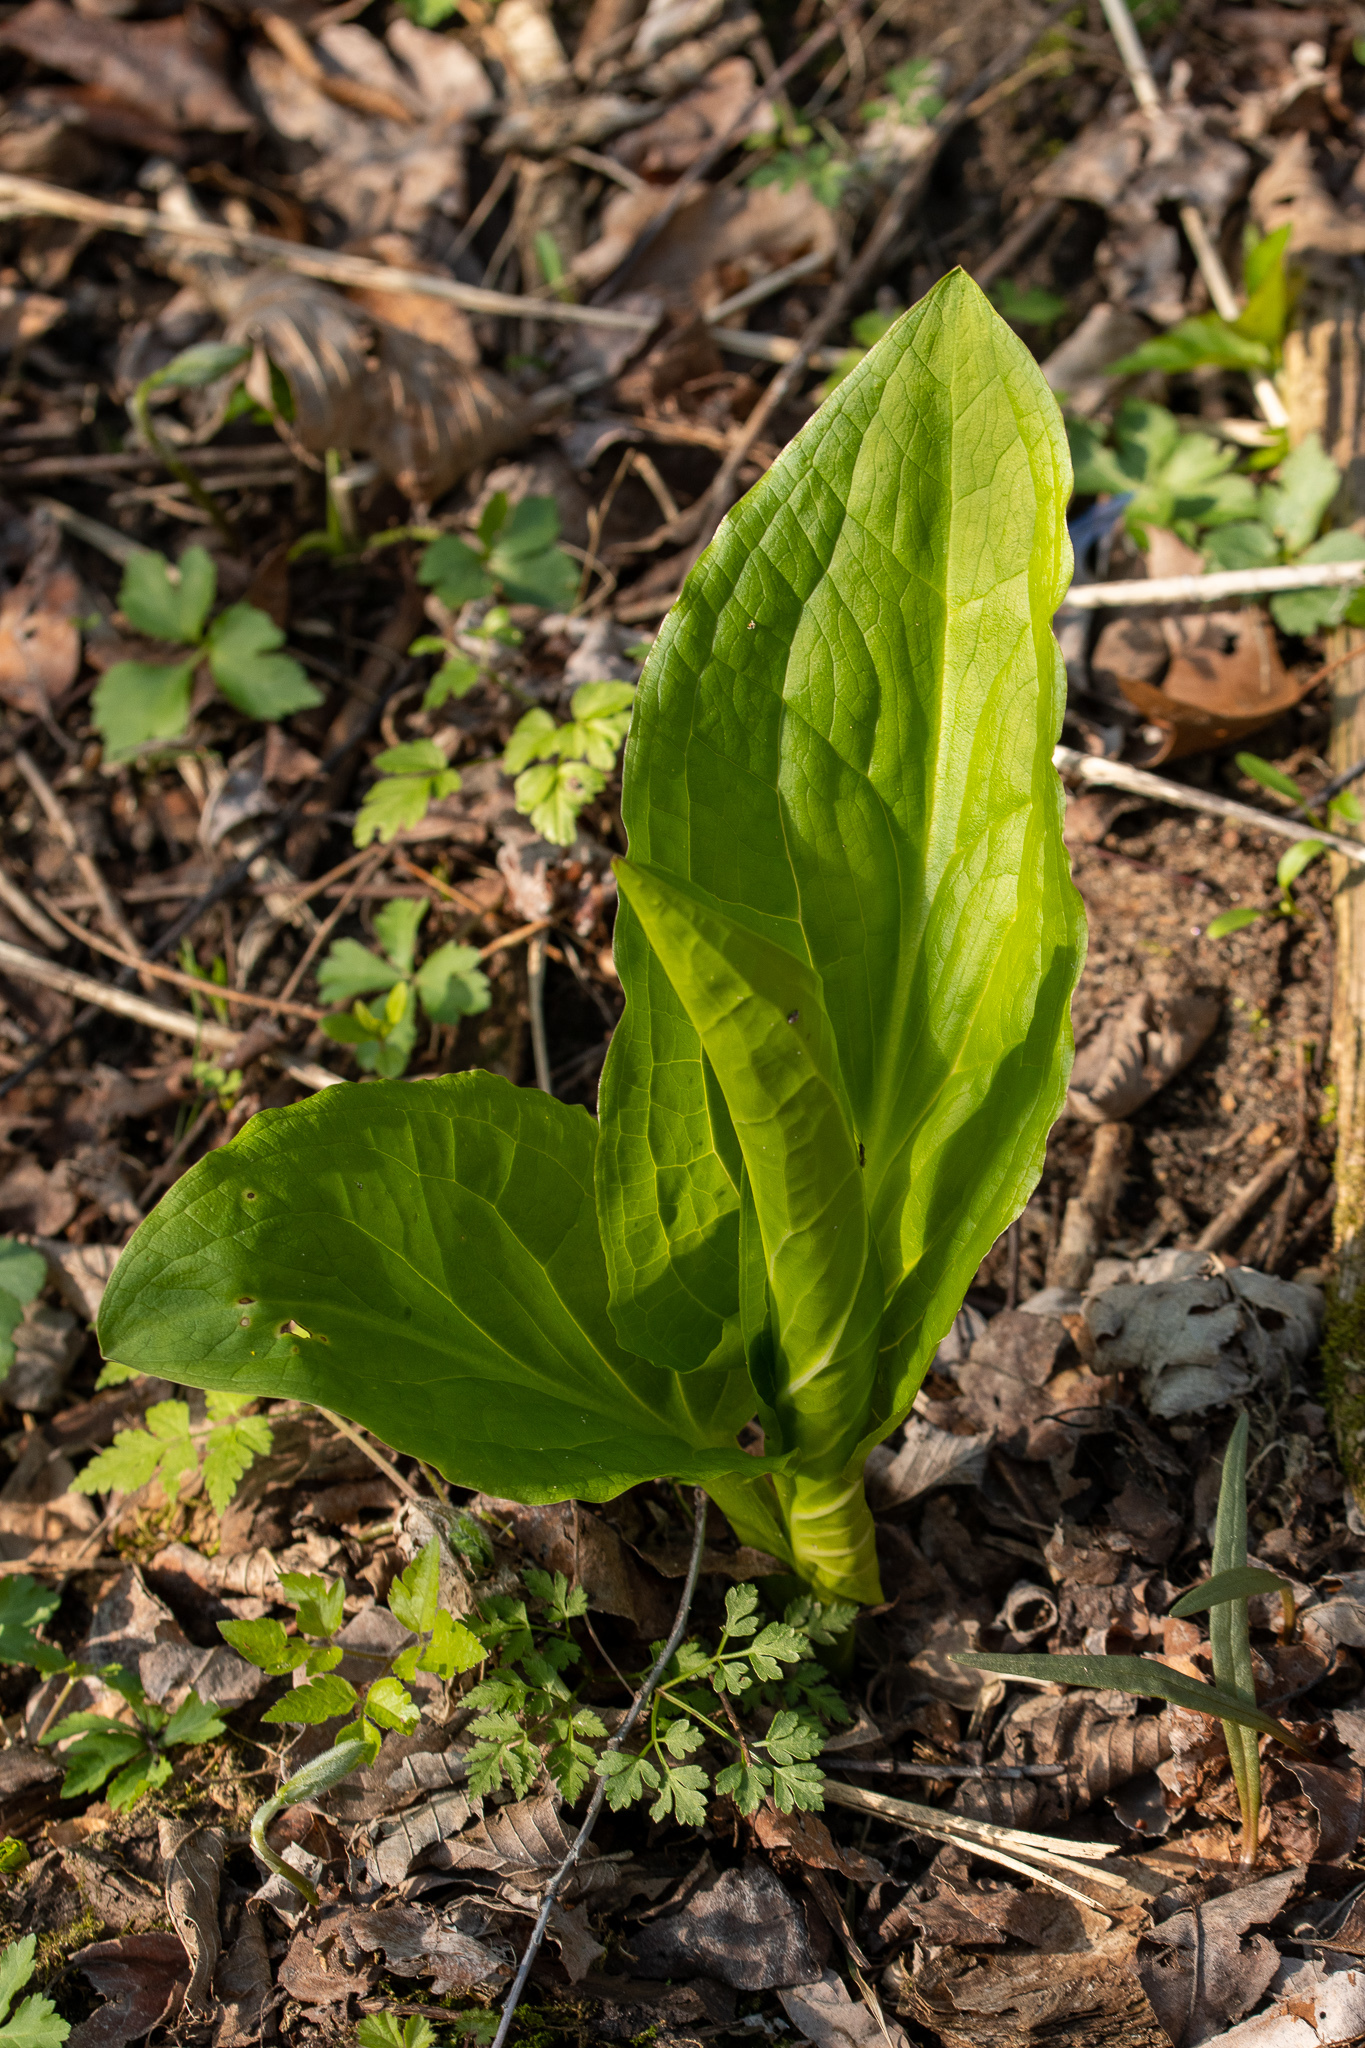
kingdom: Plantae
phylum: Tracheophyta
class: Liliopsida
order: Alismatales
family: Araceae
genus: Symplocarpus
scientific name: Symplocarpus foetidus
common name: Eastern skunk cabbage
